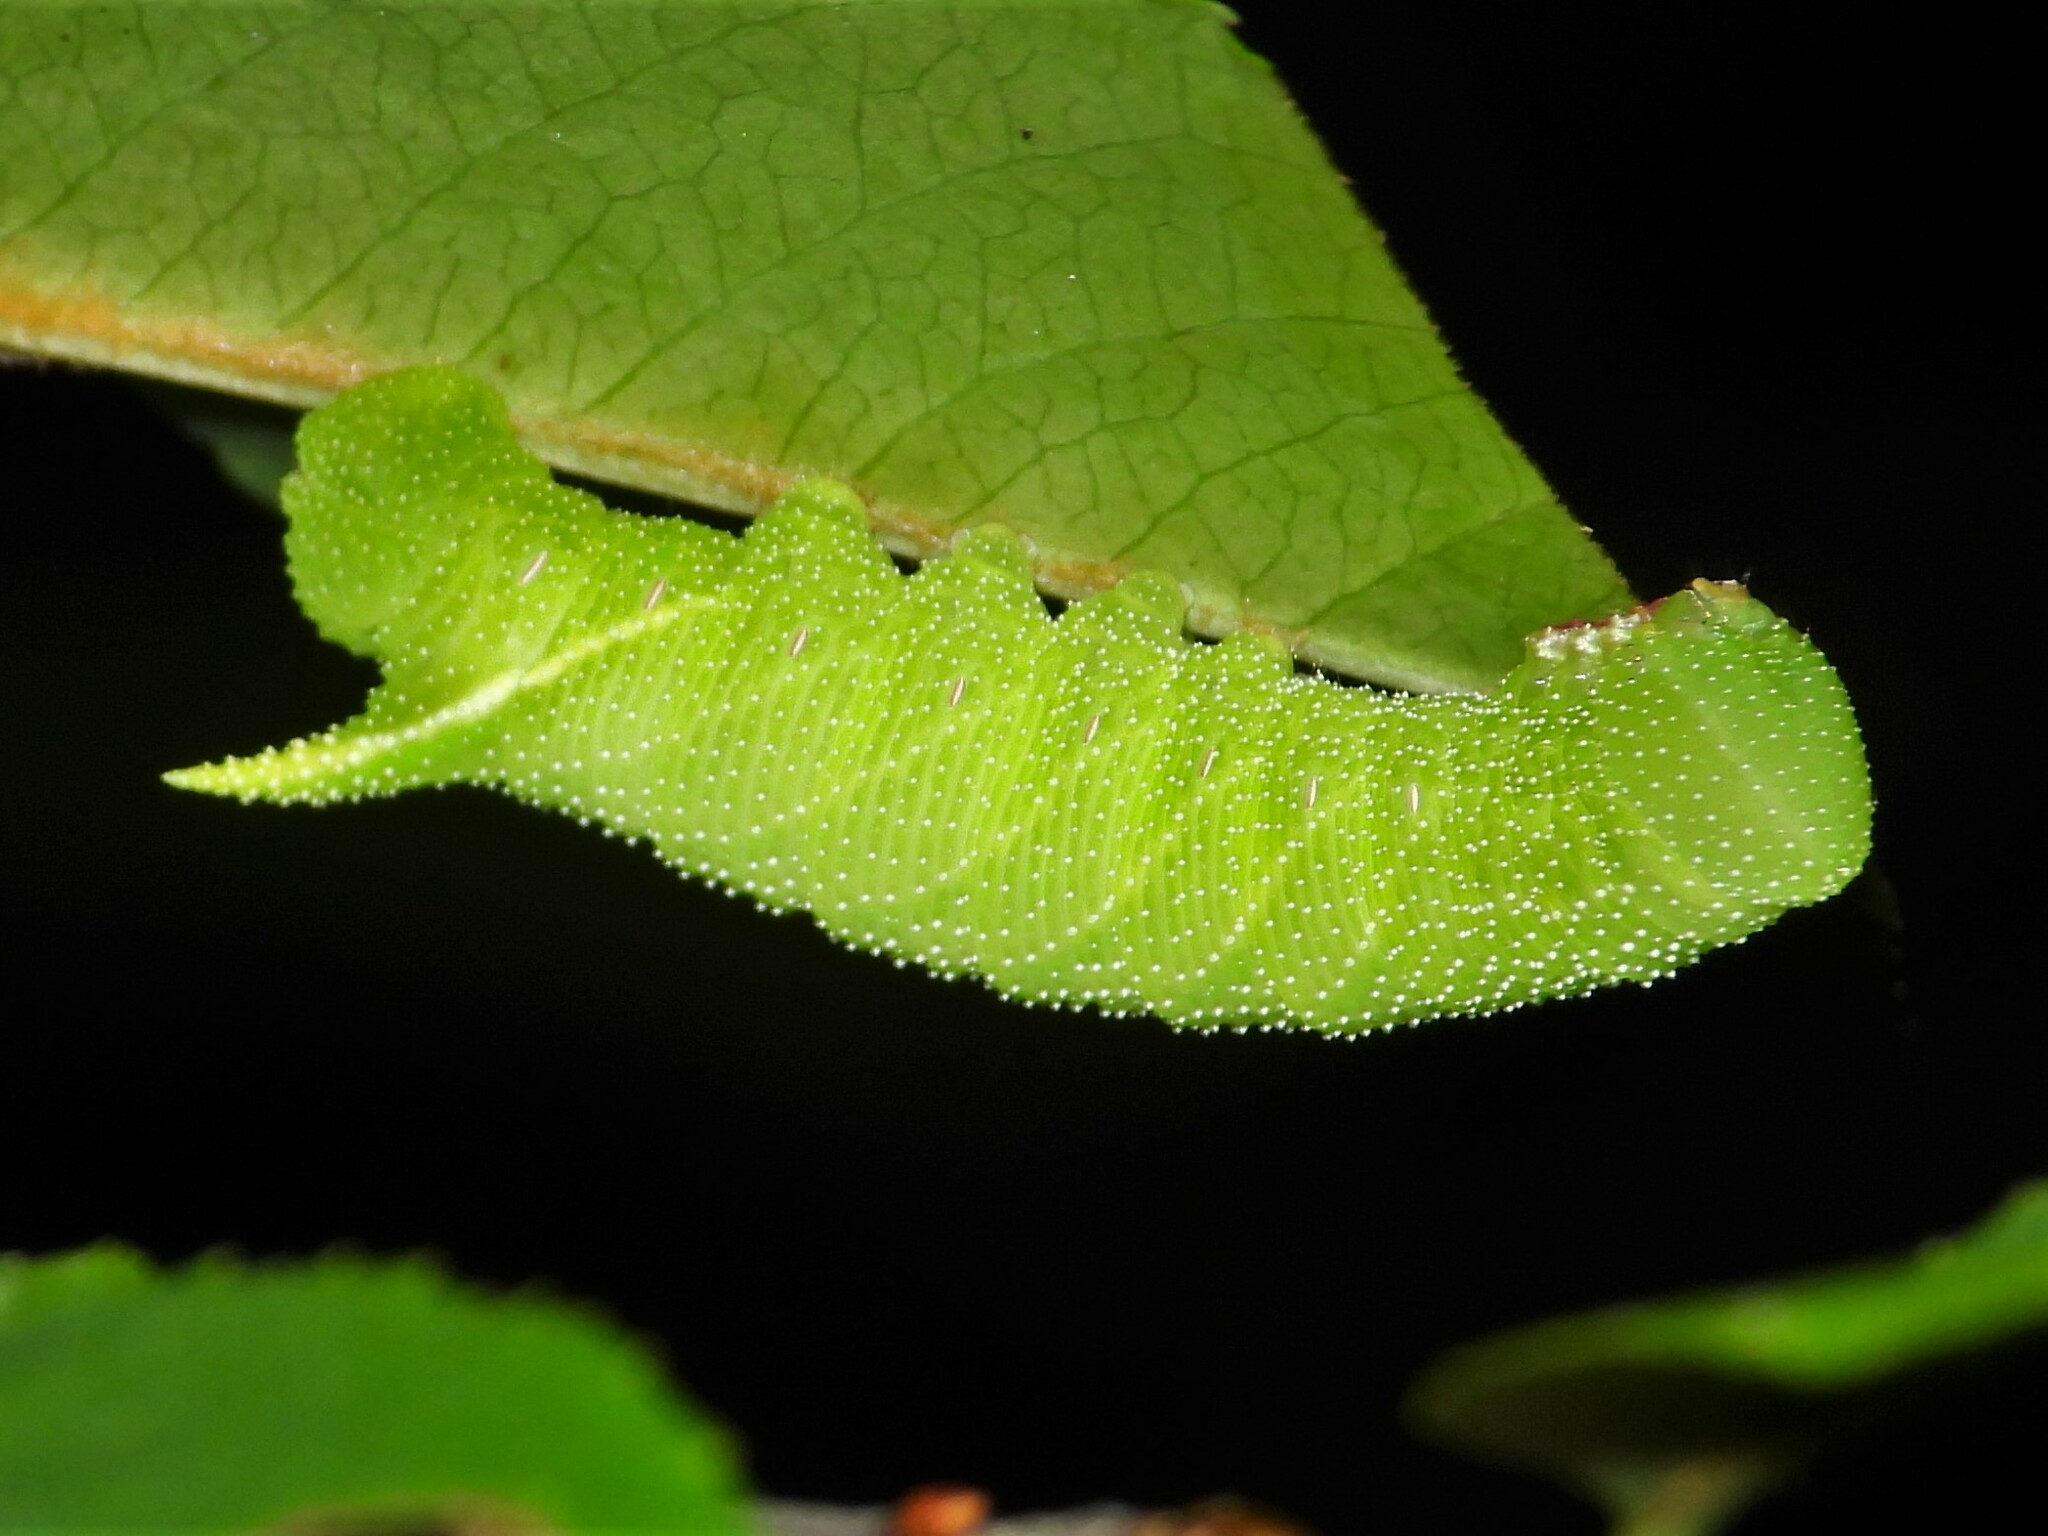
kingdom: Animalia
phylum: Arthropoda
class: Insecta
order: Lepidoptera
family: Sphingidae
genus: Paonias
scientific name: Paonias myops
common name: Small-eyed sphinx
